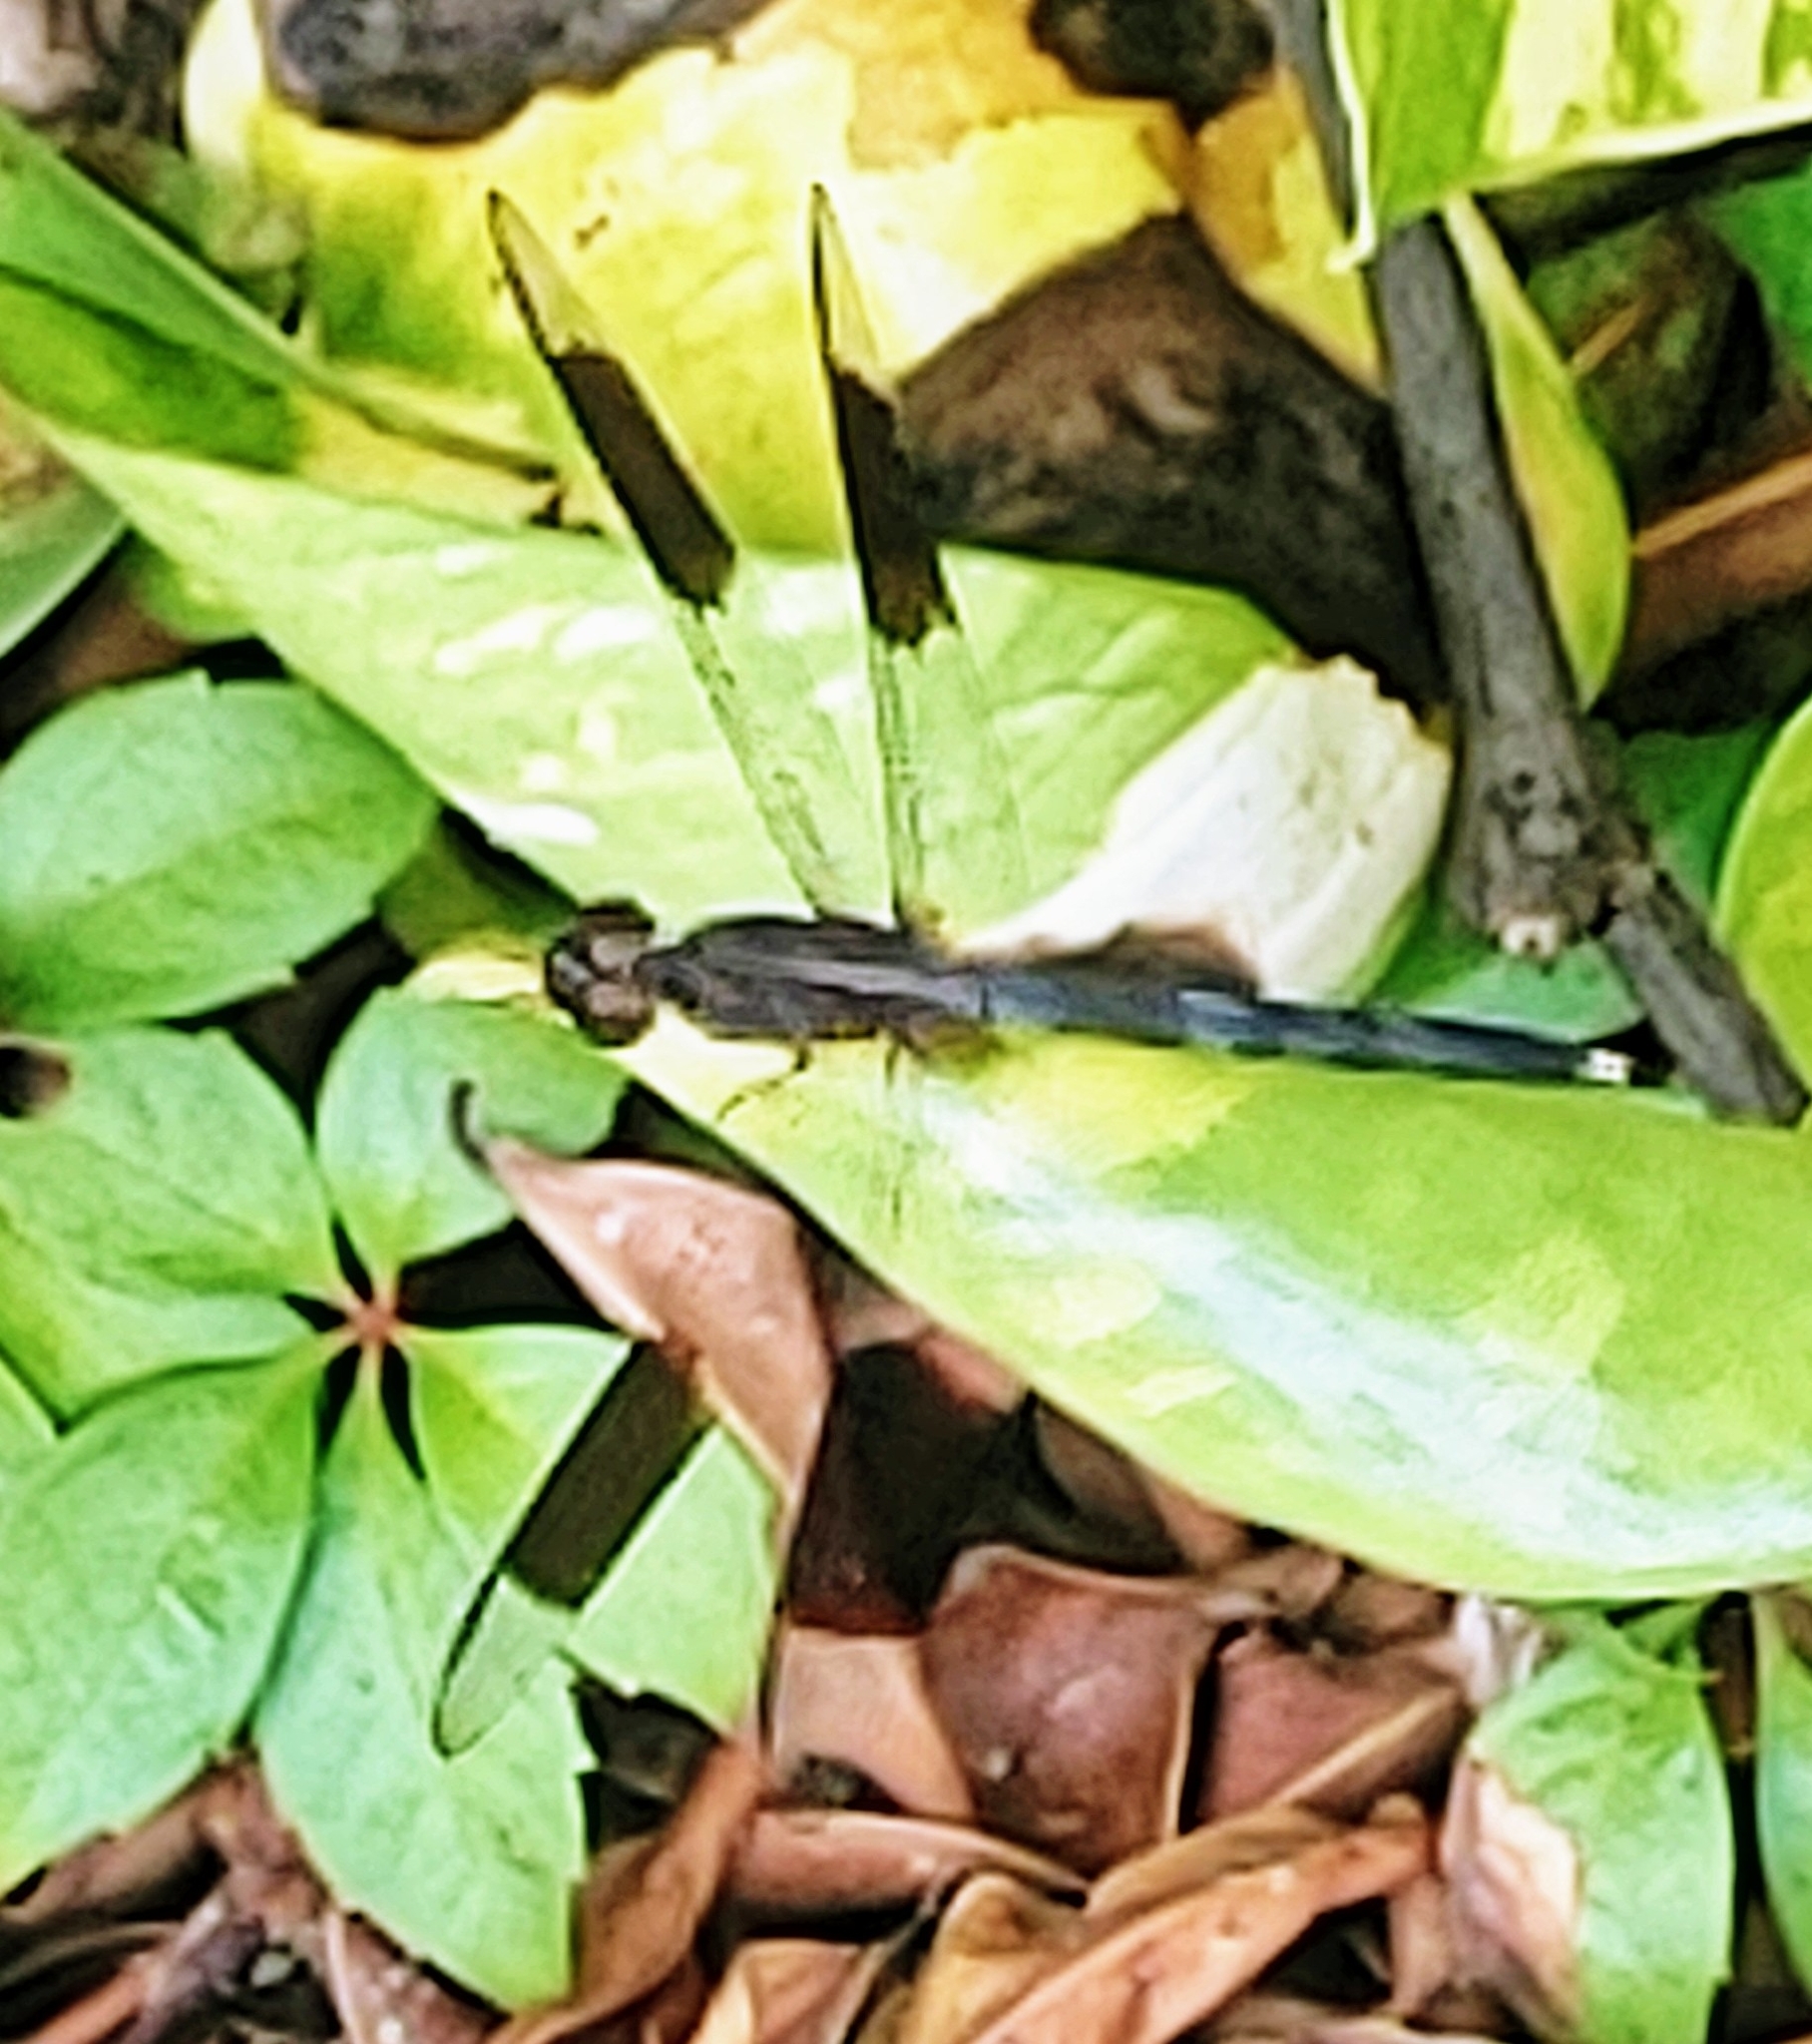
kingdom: Animalia
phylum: Arthropoda
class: Insecta
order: Odonata
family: Libellulidae
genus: Erythrodiplax
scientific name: Erythrodiplax umbrata
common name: Band-winged dragonlet
